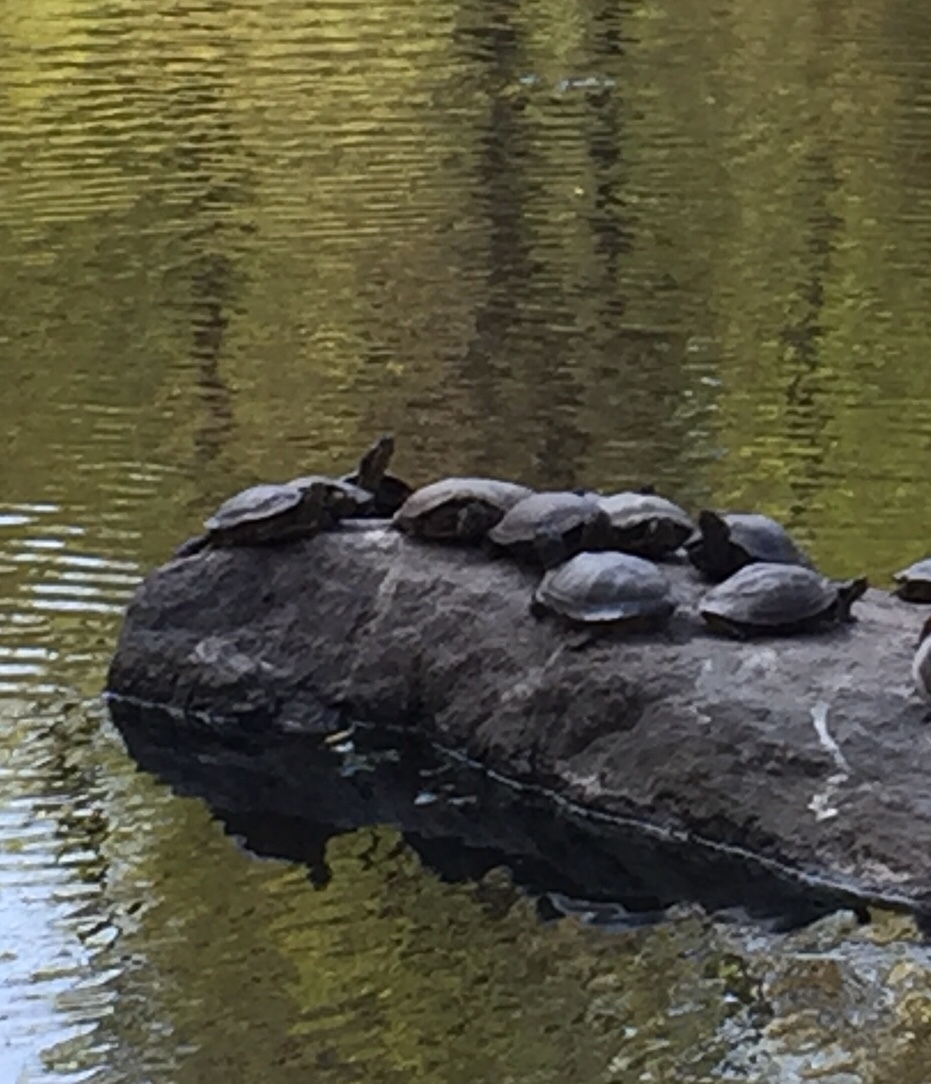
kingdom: Animalia
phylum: Chordata
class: Testudines
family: Emydidae
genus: Trachemys
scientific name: Trachemys scripta
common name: Slider
